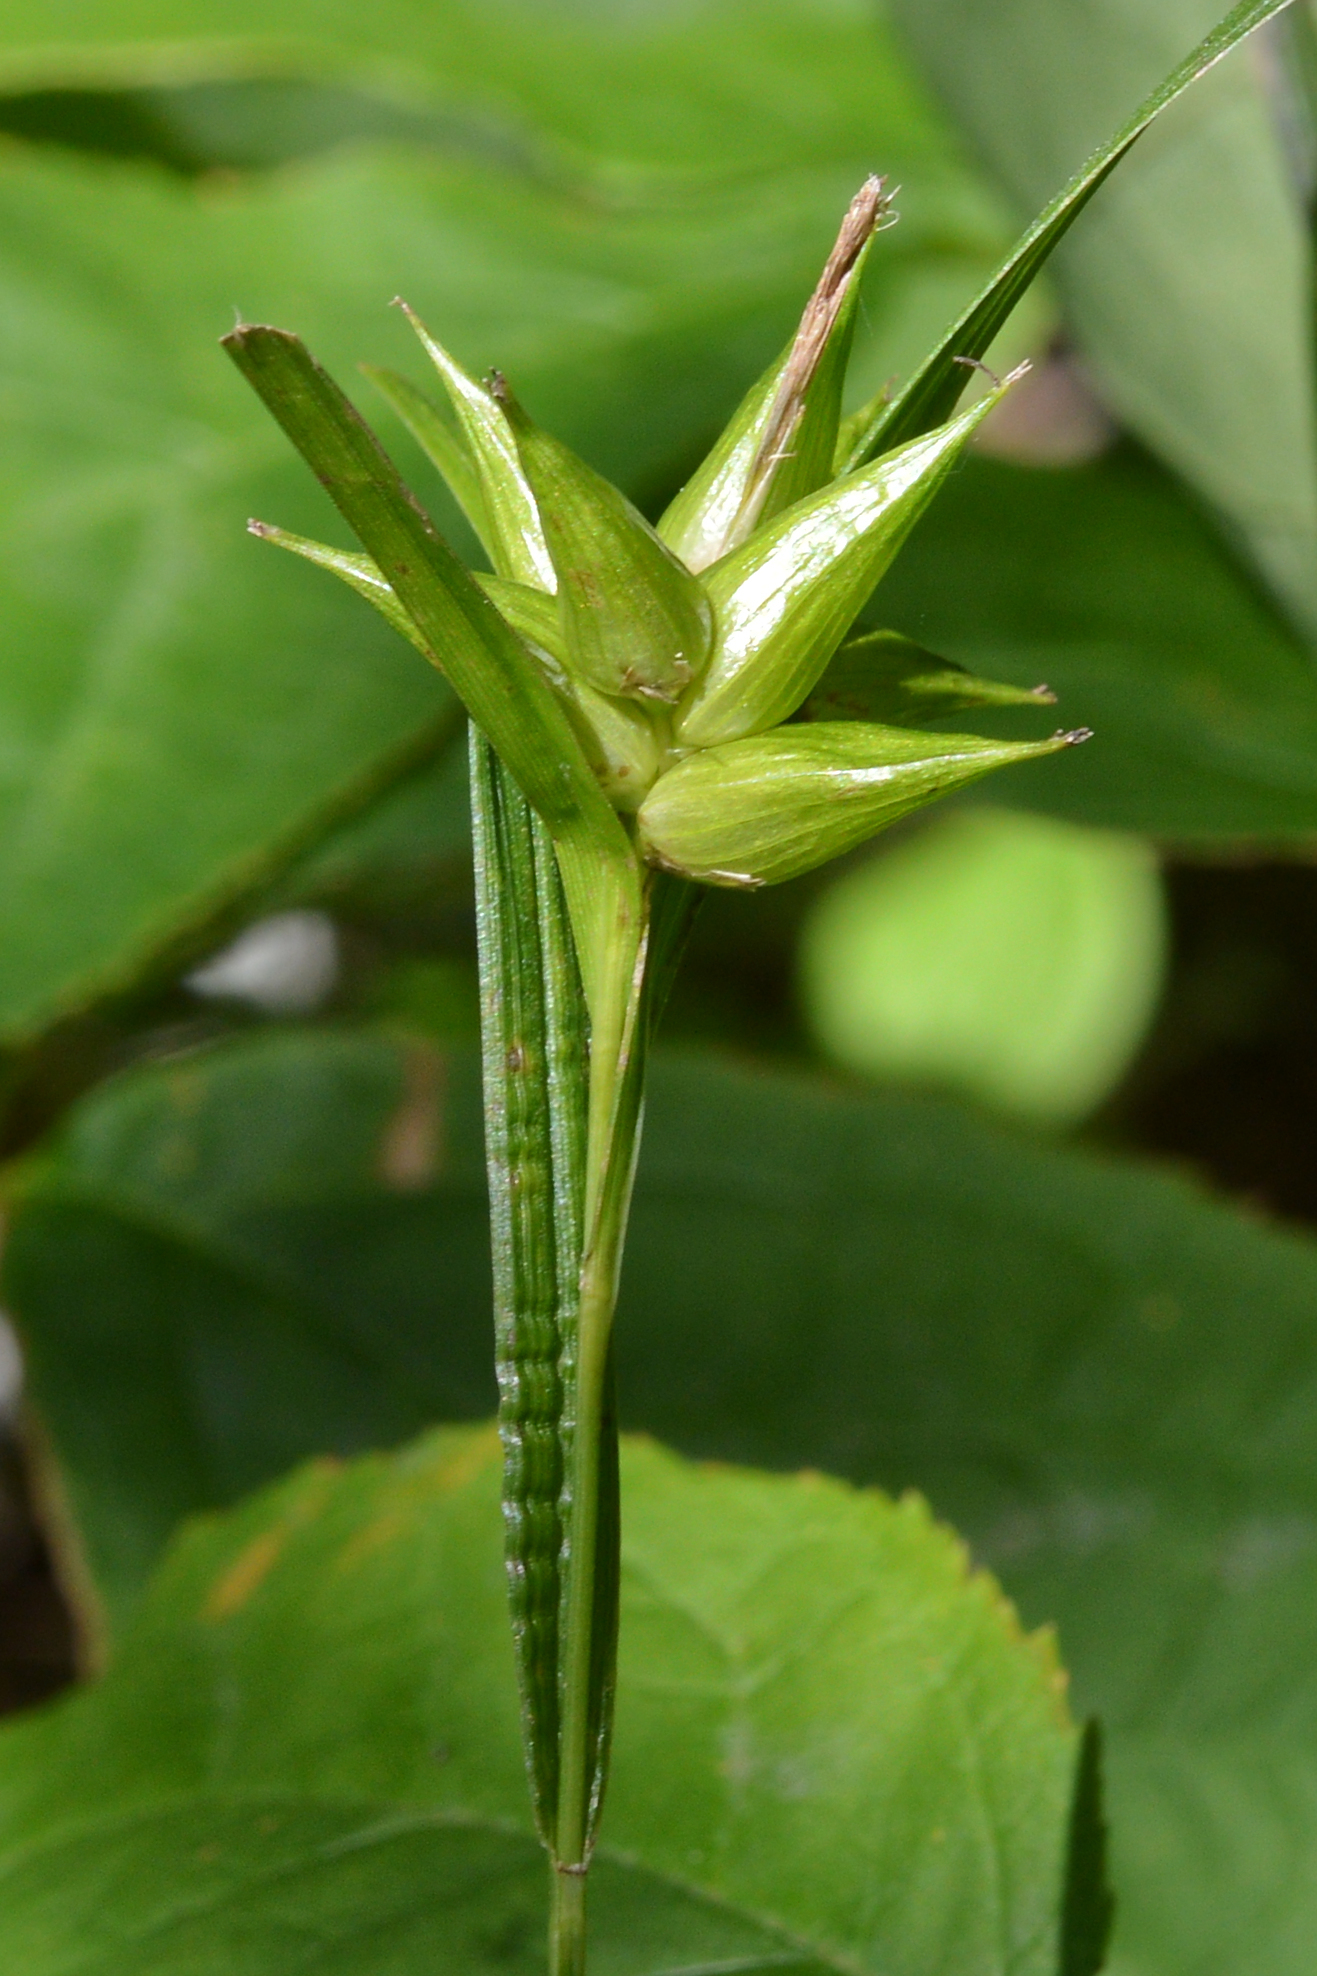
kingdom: Plantae
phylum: Tracheophyta
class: Liliopsida
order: Poales
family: Cyperaceae
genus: Carex
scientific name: Carex intumescens
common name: Greater bladder sedge
